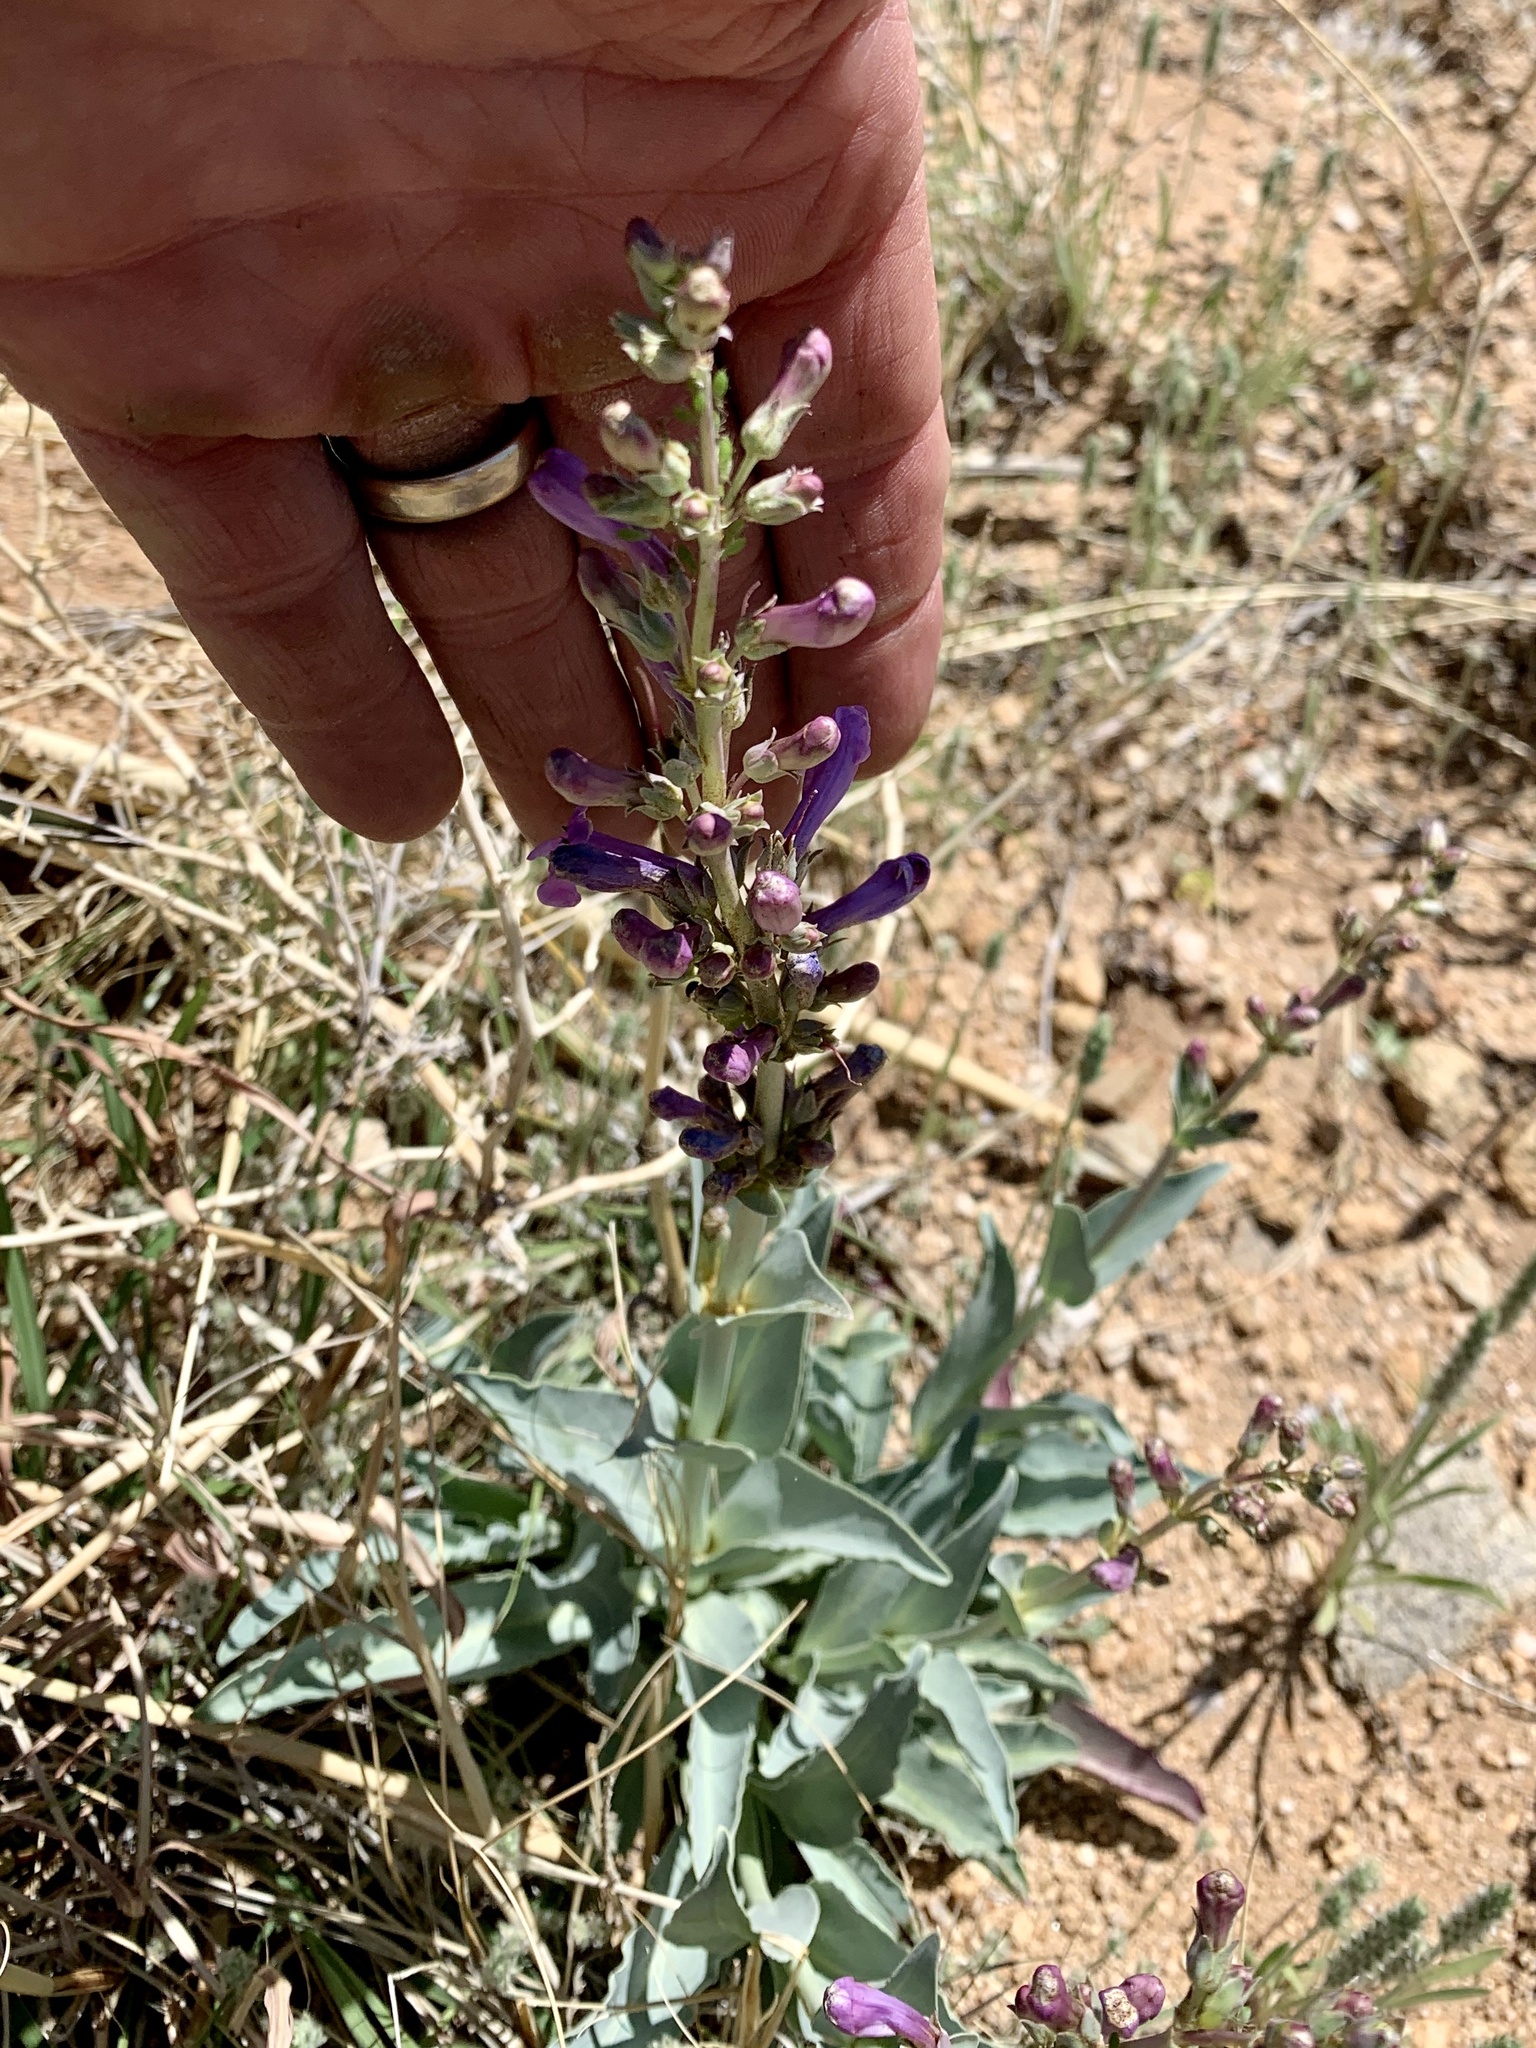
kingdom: Plantae
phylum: Tracheophyta
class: Magnoliopsida
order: Lamiales
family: Plantaginaceae
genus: Penstemon
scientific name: Penstemon fendleri
